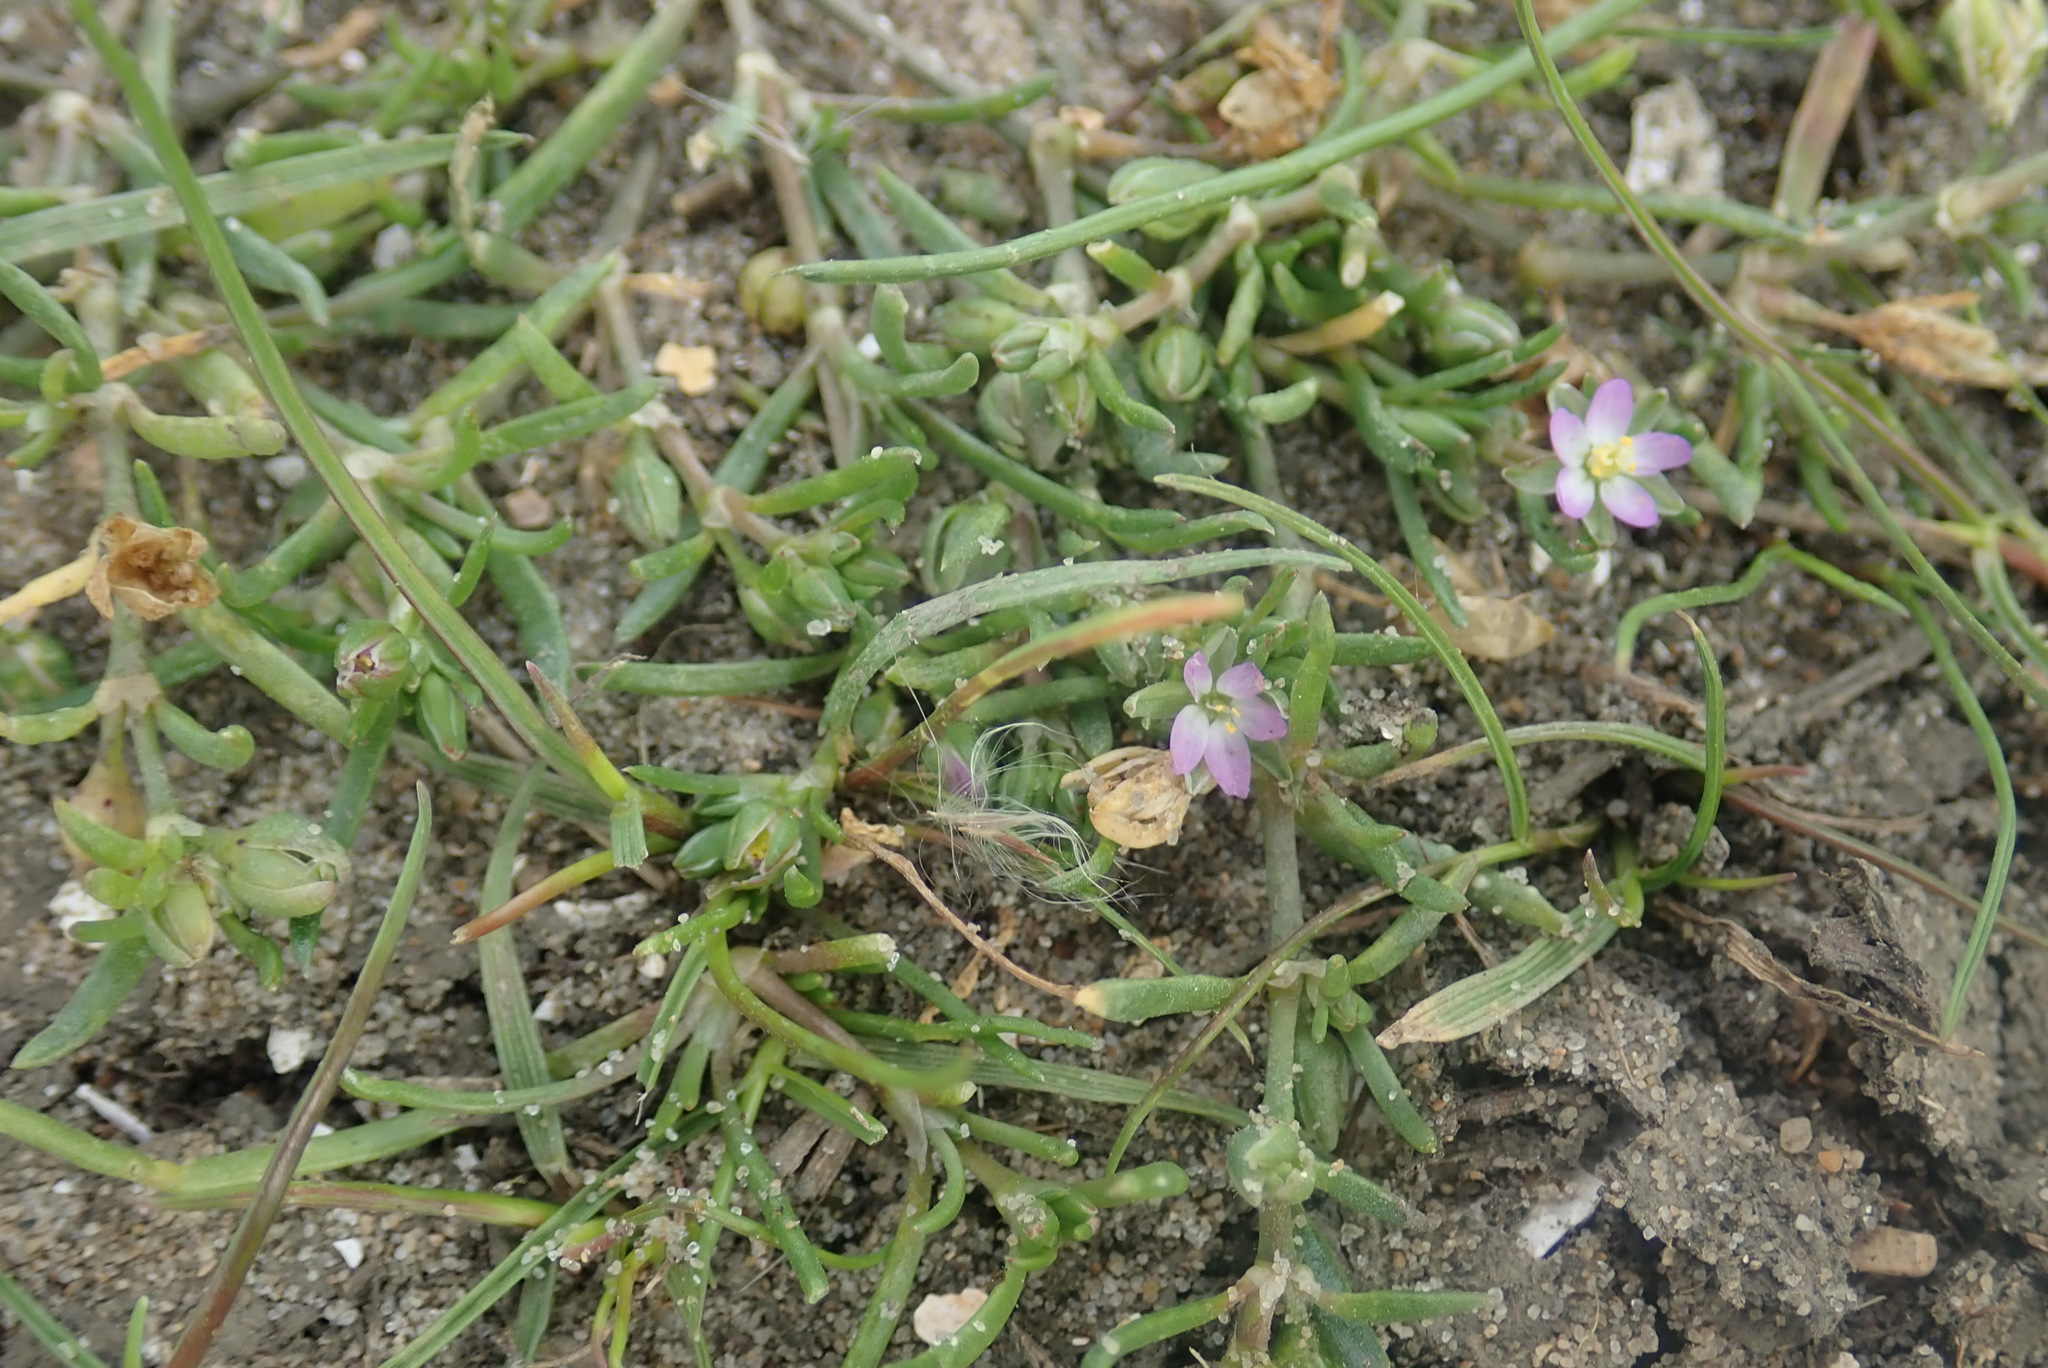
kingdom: Plantae
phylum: Tracheophyta
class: Magnoliopsida
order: Caryophyllales
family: Caryophyllaceae
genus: Spergularia
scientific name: Spergularia marina
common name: Lesser sea-spurrey
